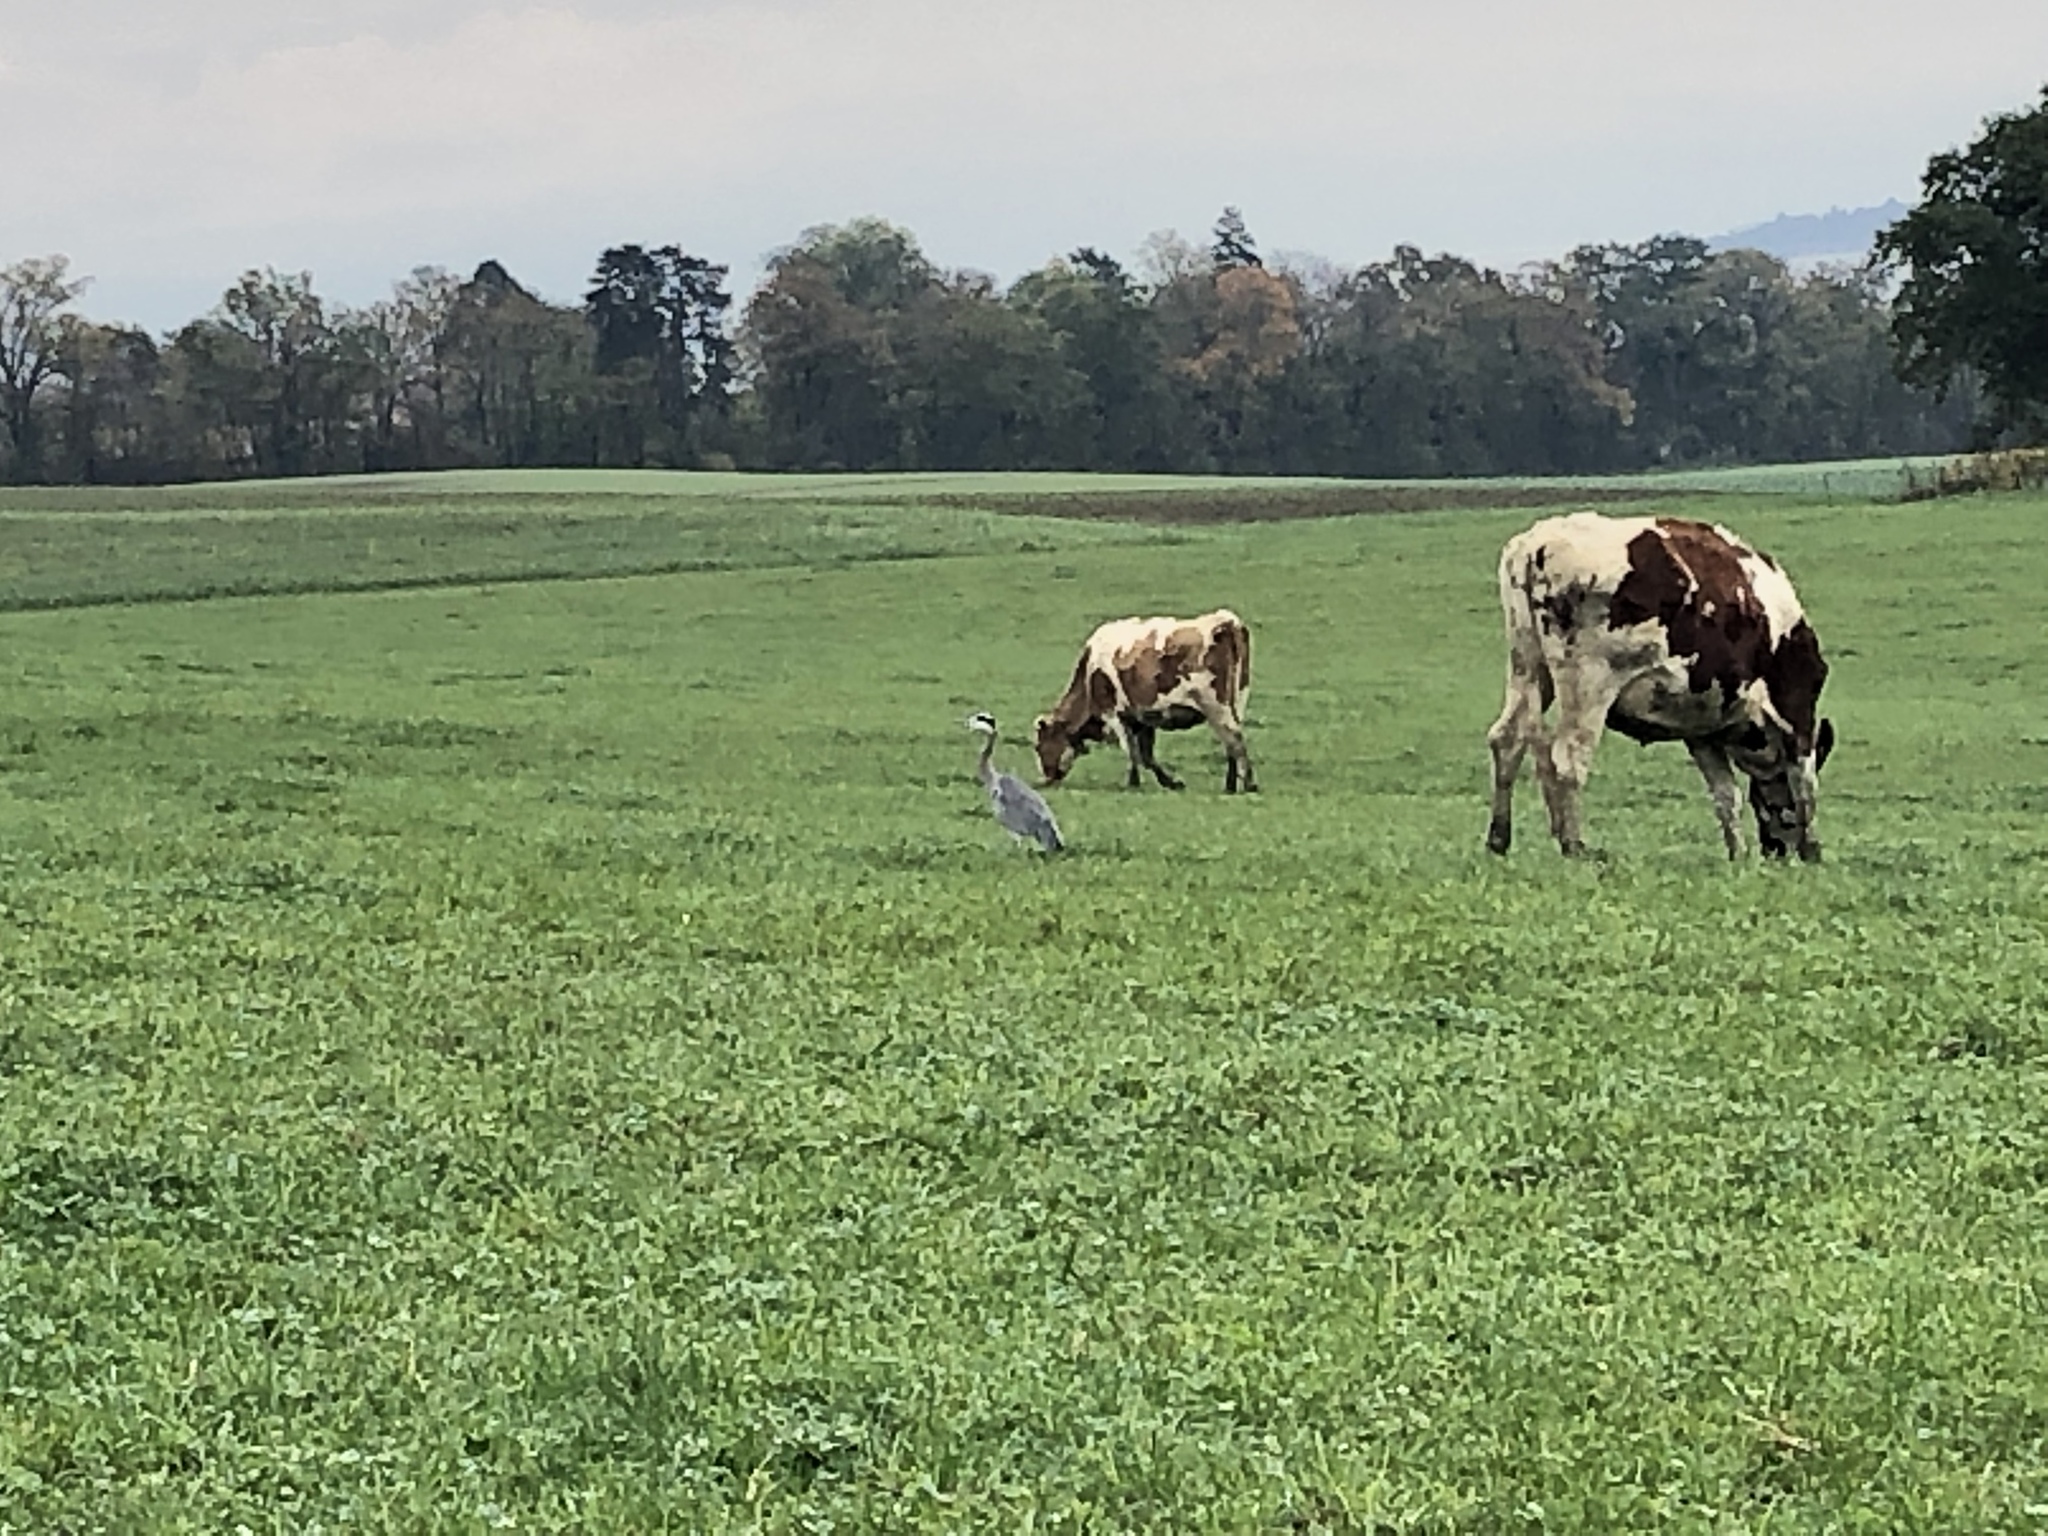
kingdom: Animalia
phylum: Chordata
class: Aves
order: Pelecaniformes
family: Ardeidae
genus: Ardea
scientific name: Ardea cinerea
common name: Grey heron
